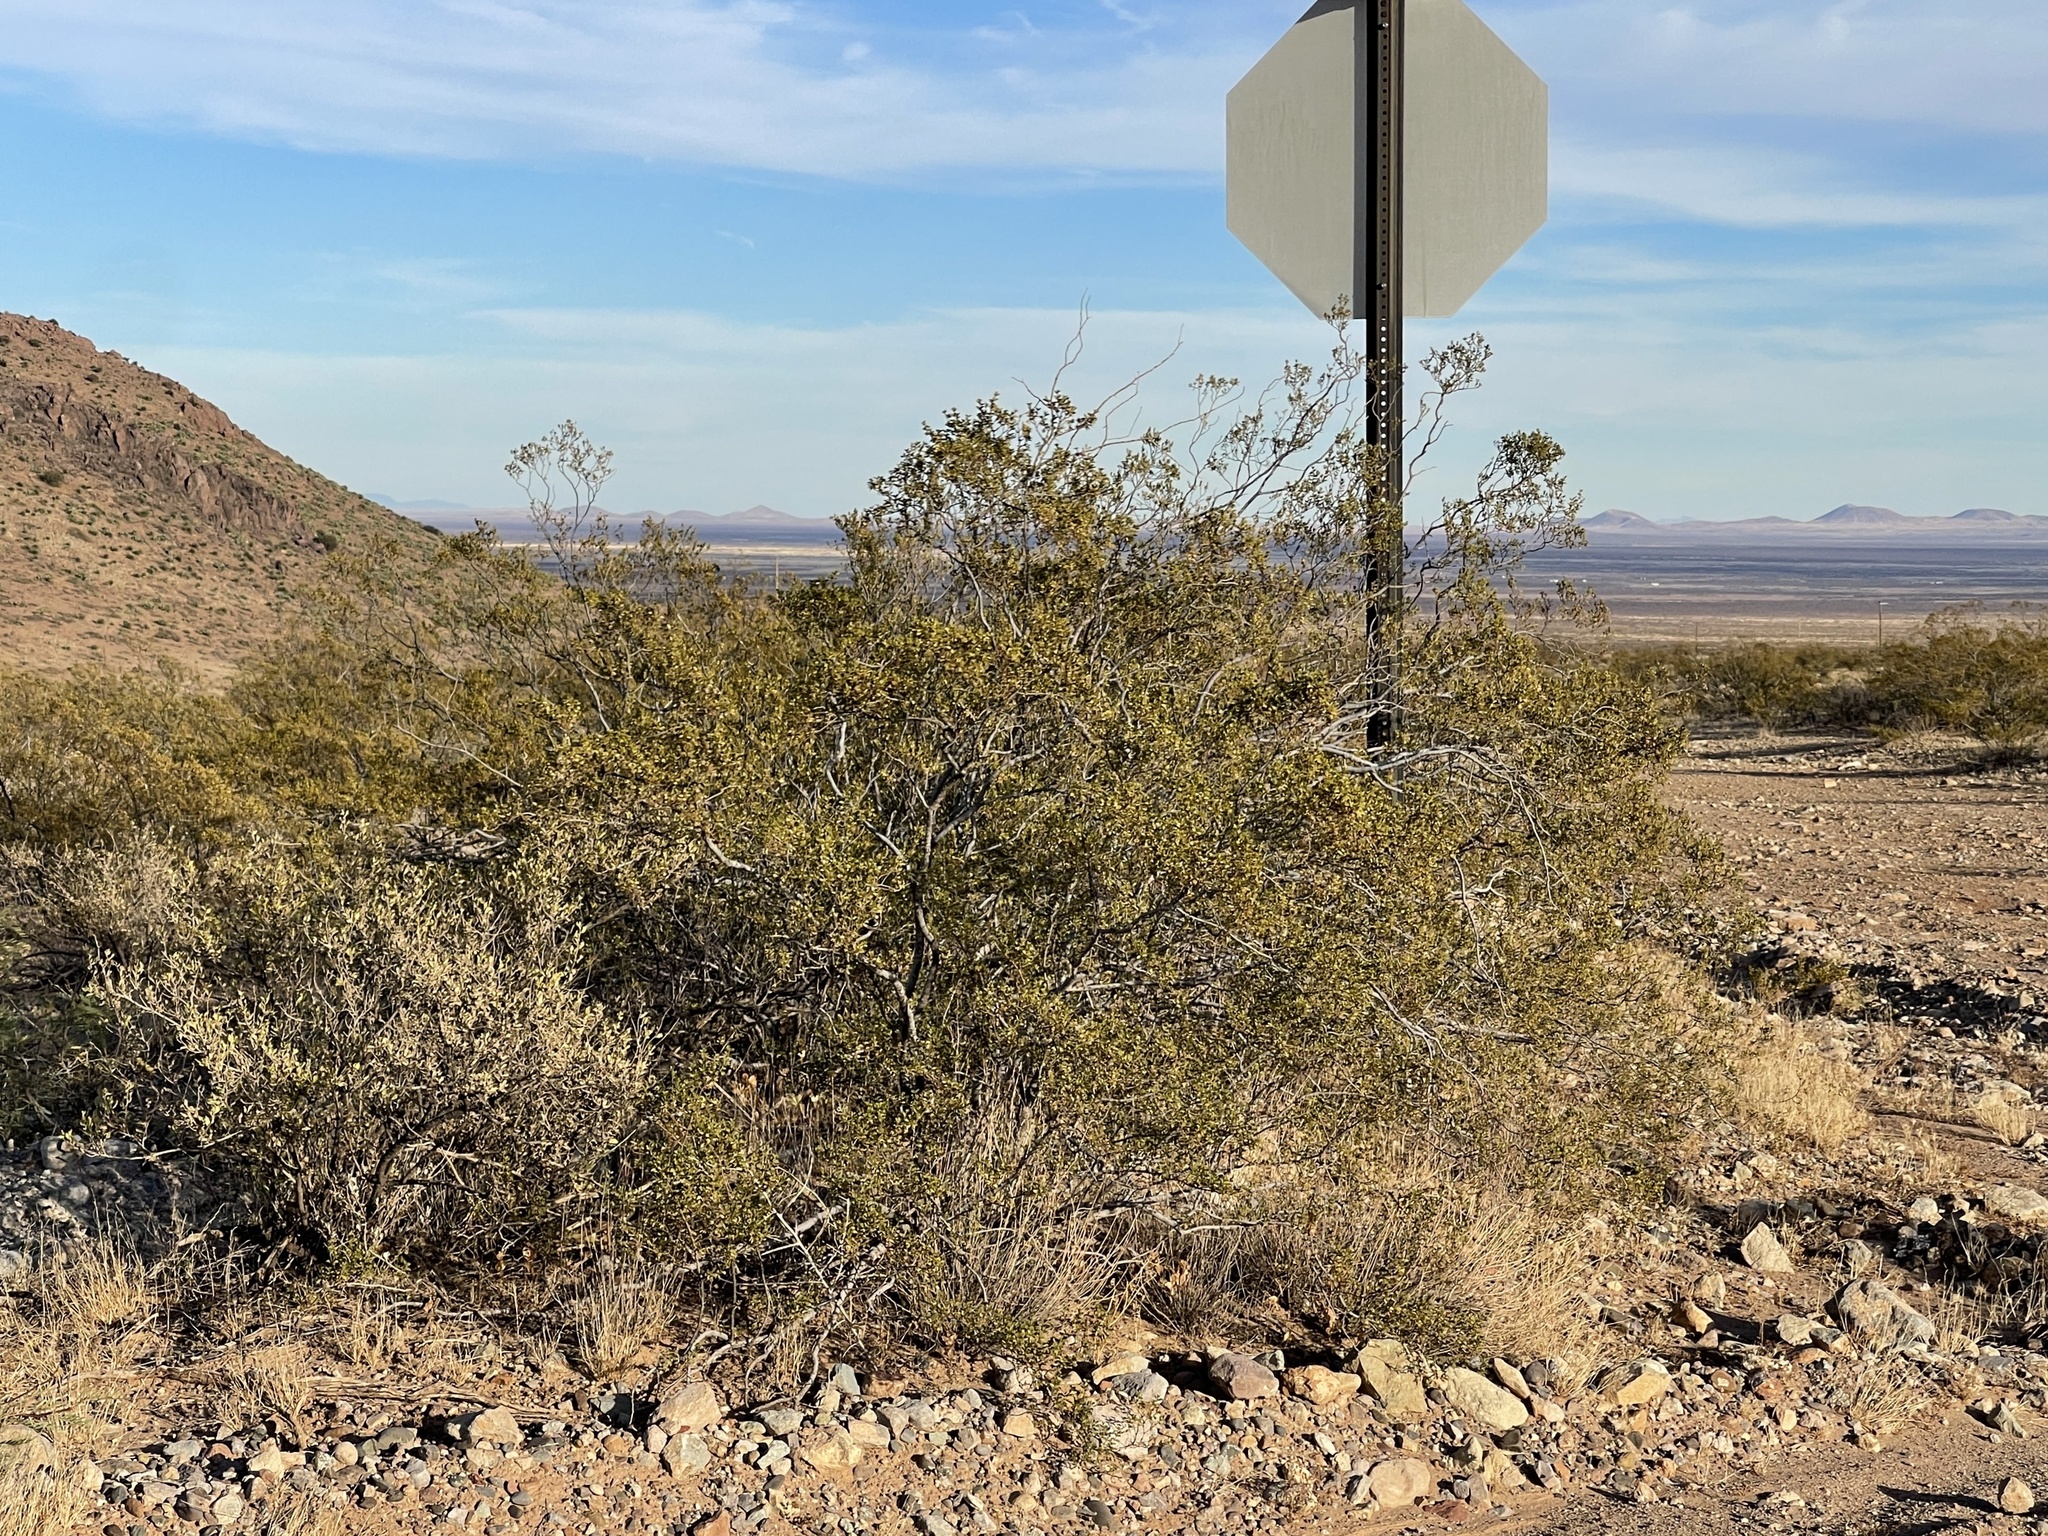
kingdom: Plantae
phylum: Tracheophyta
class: Magnoliopsida
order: Zygophyllales
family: Zygophyllaceae
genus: Larrea
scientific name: Larrea tridentata
